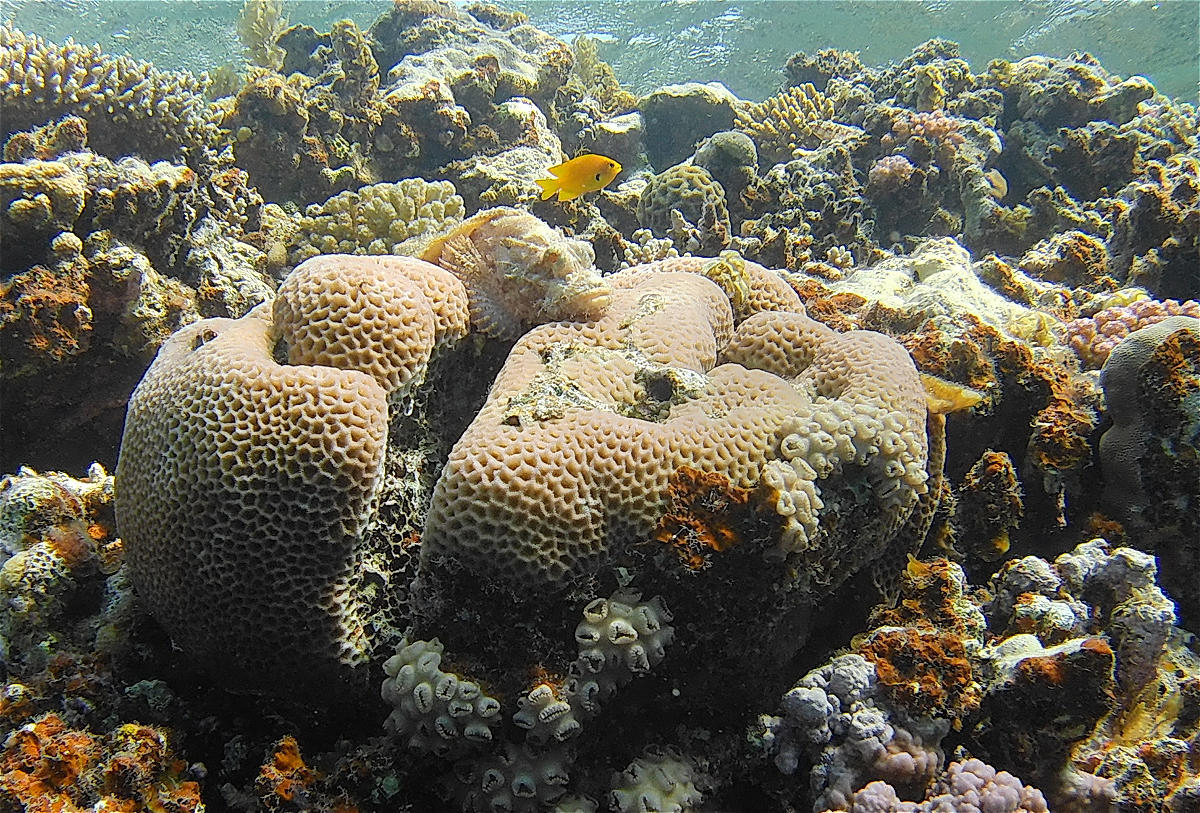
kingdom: Animalia
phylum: Cnidaria
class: Anthozoa
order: Scleractinia
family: Merulinidae
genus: Goniastrea
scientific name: Goniastrea pectinata
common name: Lesser star coral
